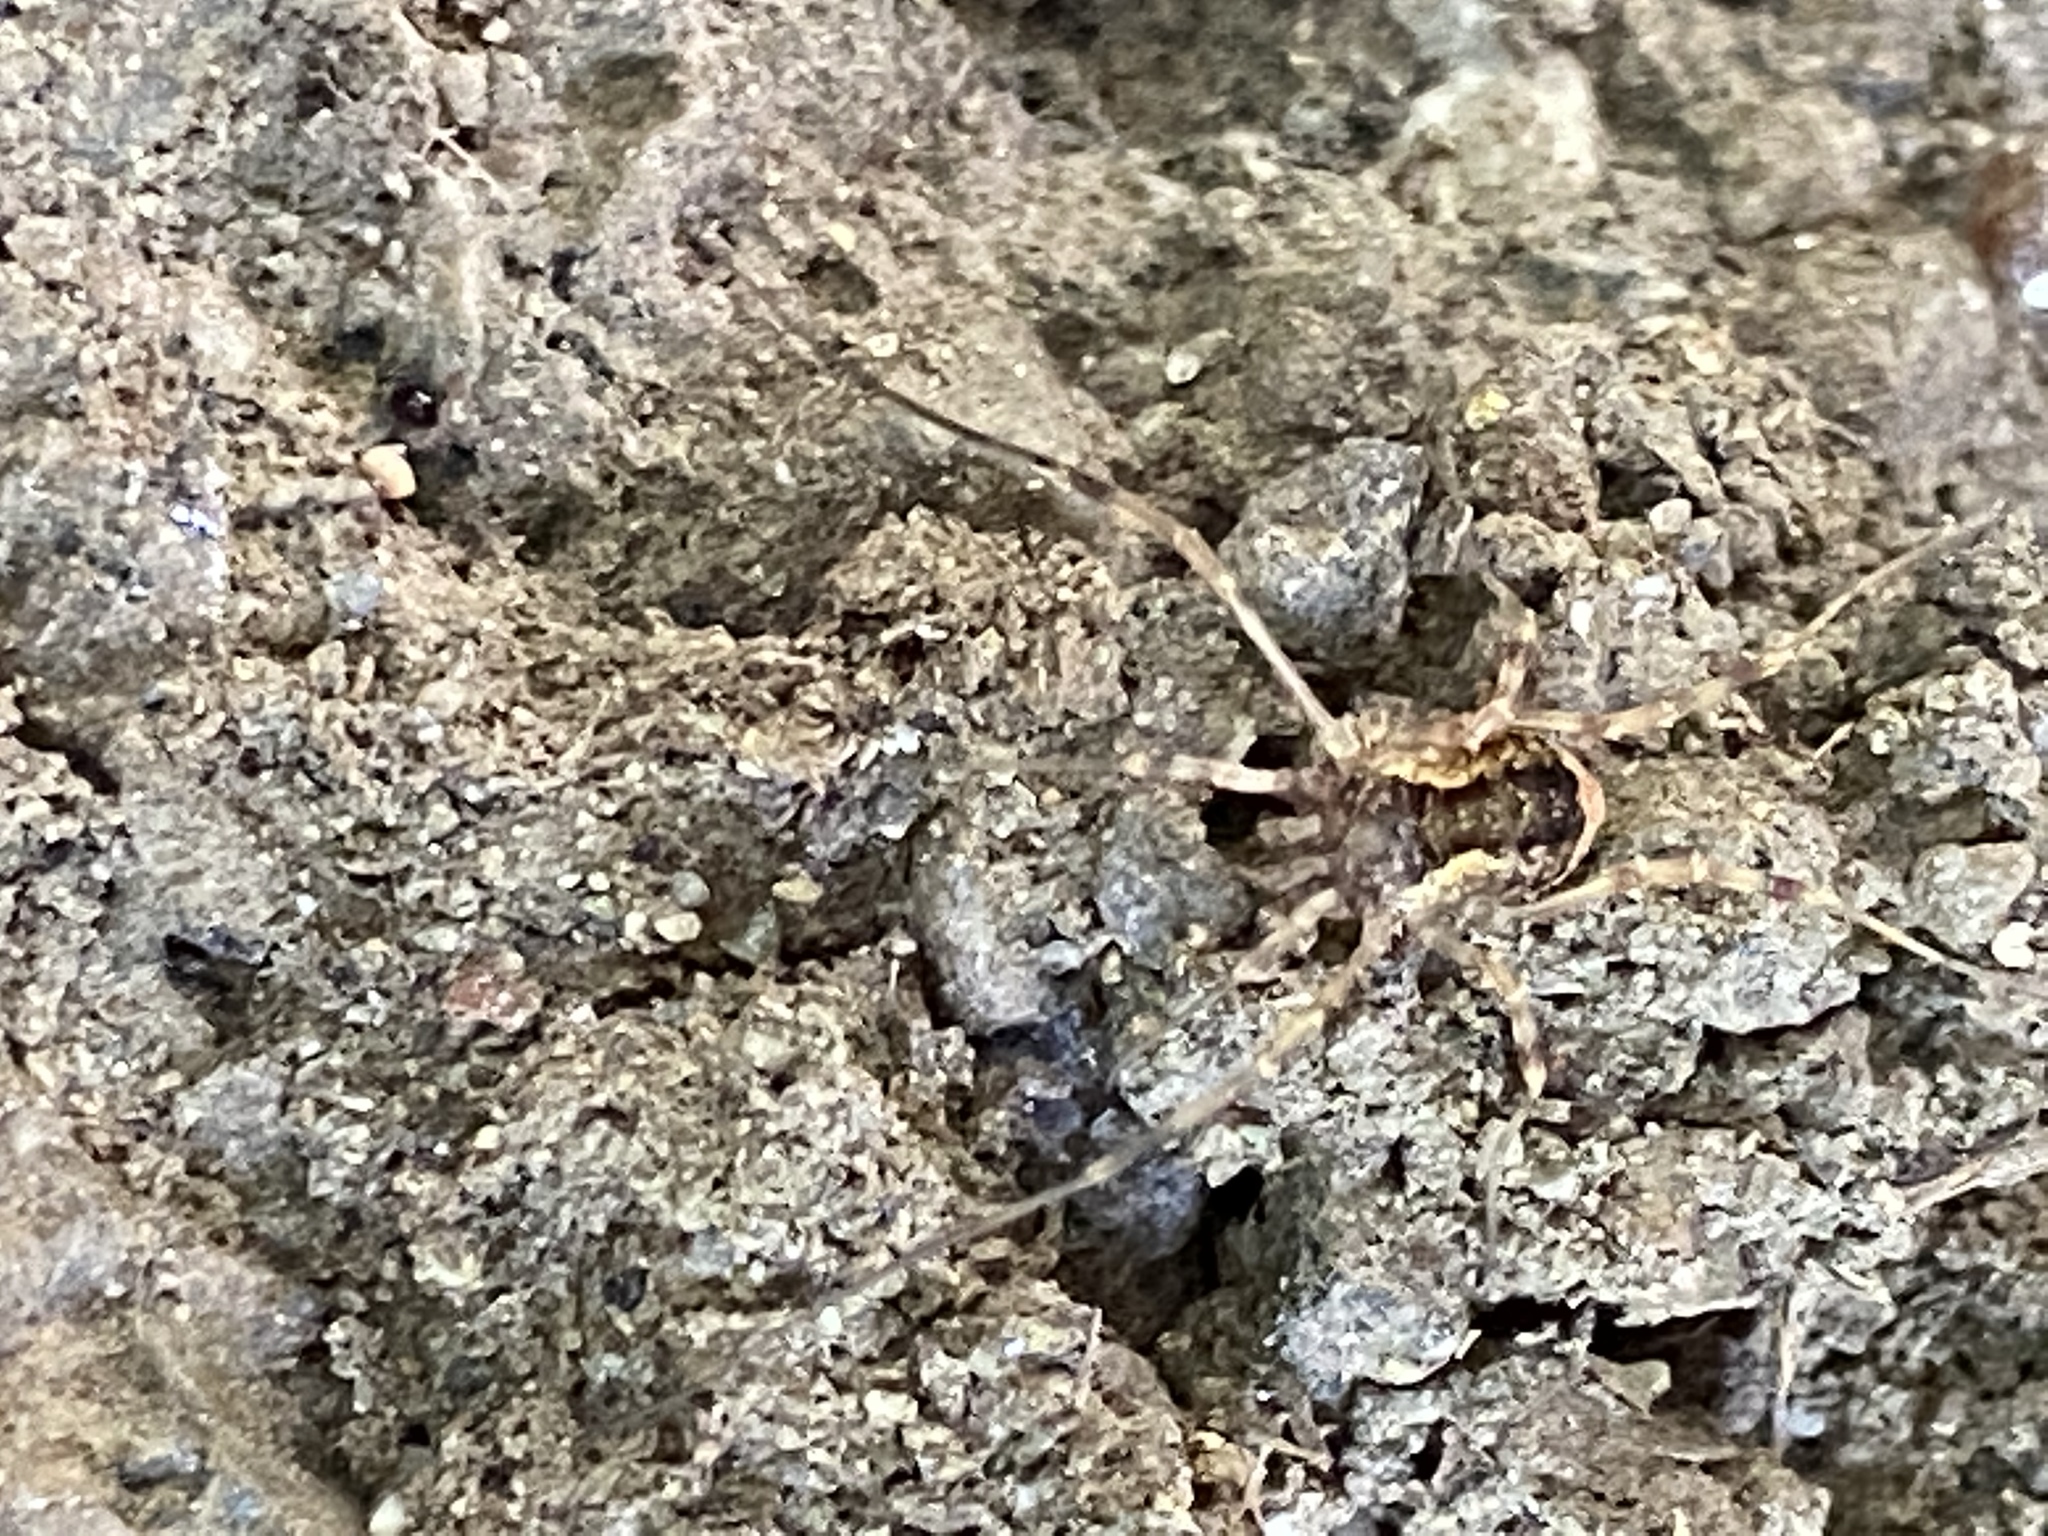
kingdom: Animalia
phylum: Arthropoda
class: Arachnida
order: Opiliones
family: Phalangiidae
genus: Oligolophus
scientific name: Oligolophus tridens
